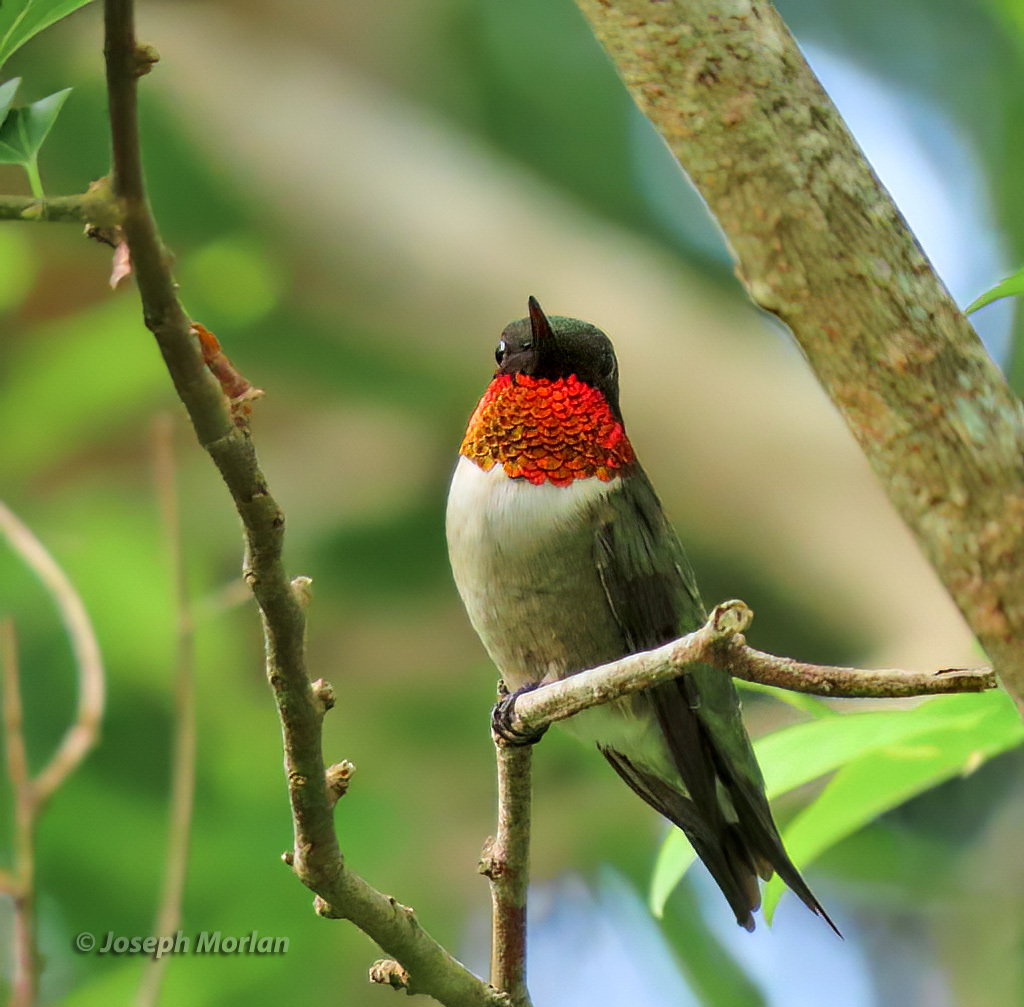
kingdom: Animalia
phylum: Chordata
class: Aves
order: Apodiformes
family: Trochilidae
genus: Archilochus
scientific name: Archilochus colubris
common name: Ruby-throated hummingbird
